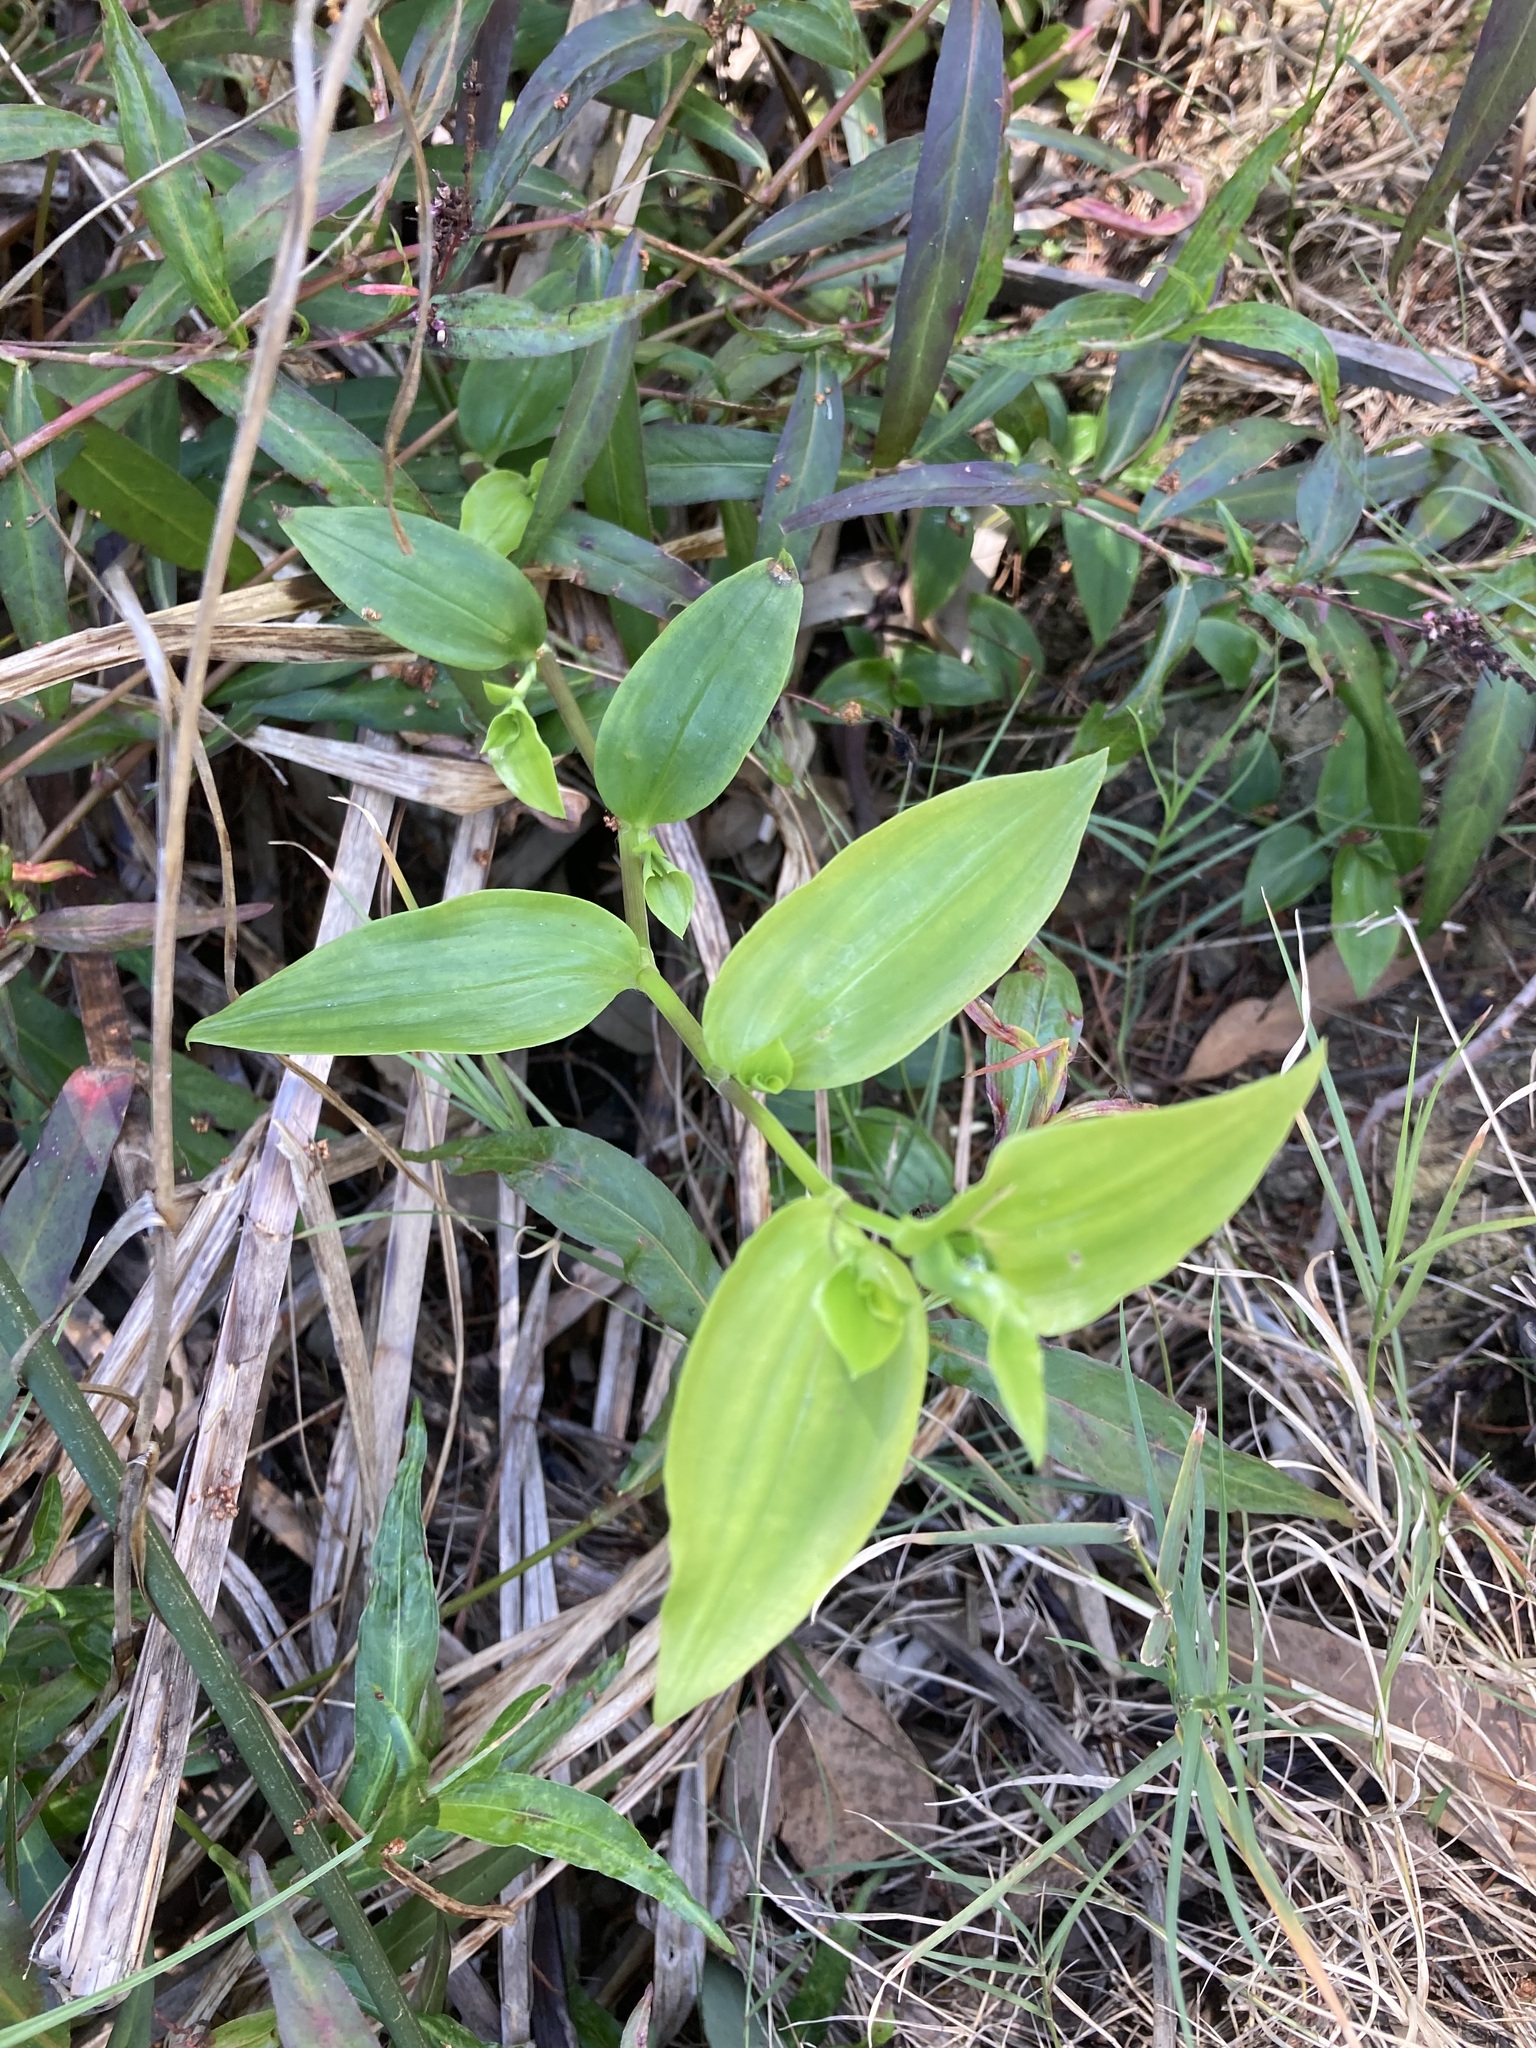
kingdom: Plantae
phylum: Tracheophyta
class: Liliopsida
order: Commelinales
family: Commelinaceae
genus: Tradescantia
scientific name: Tradescantia fluminensis
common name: Wandering-jew
